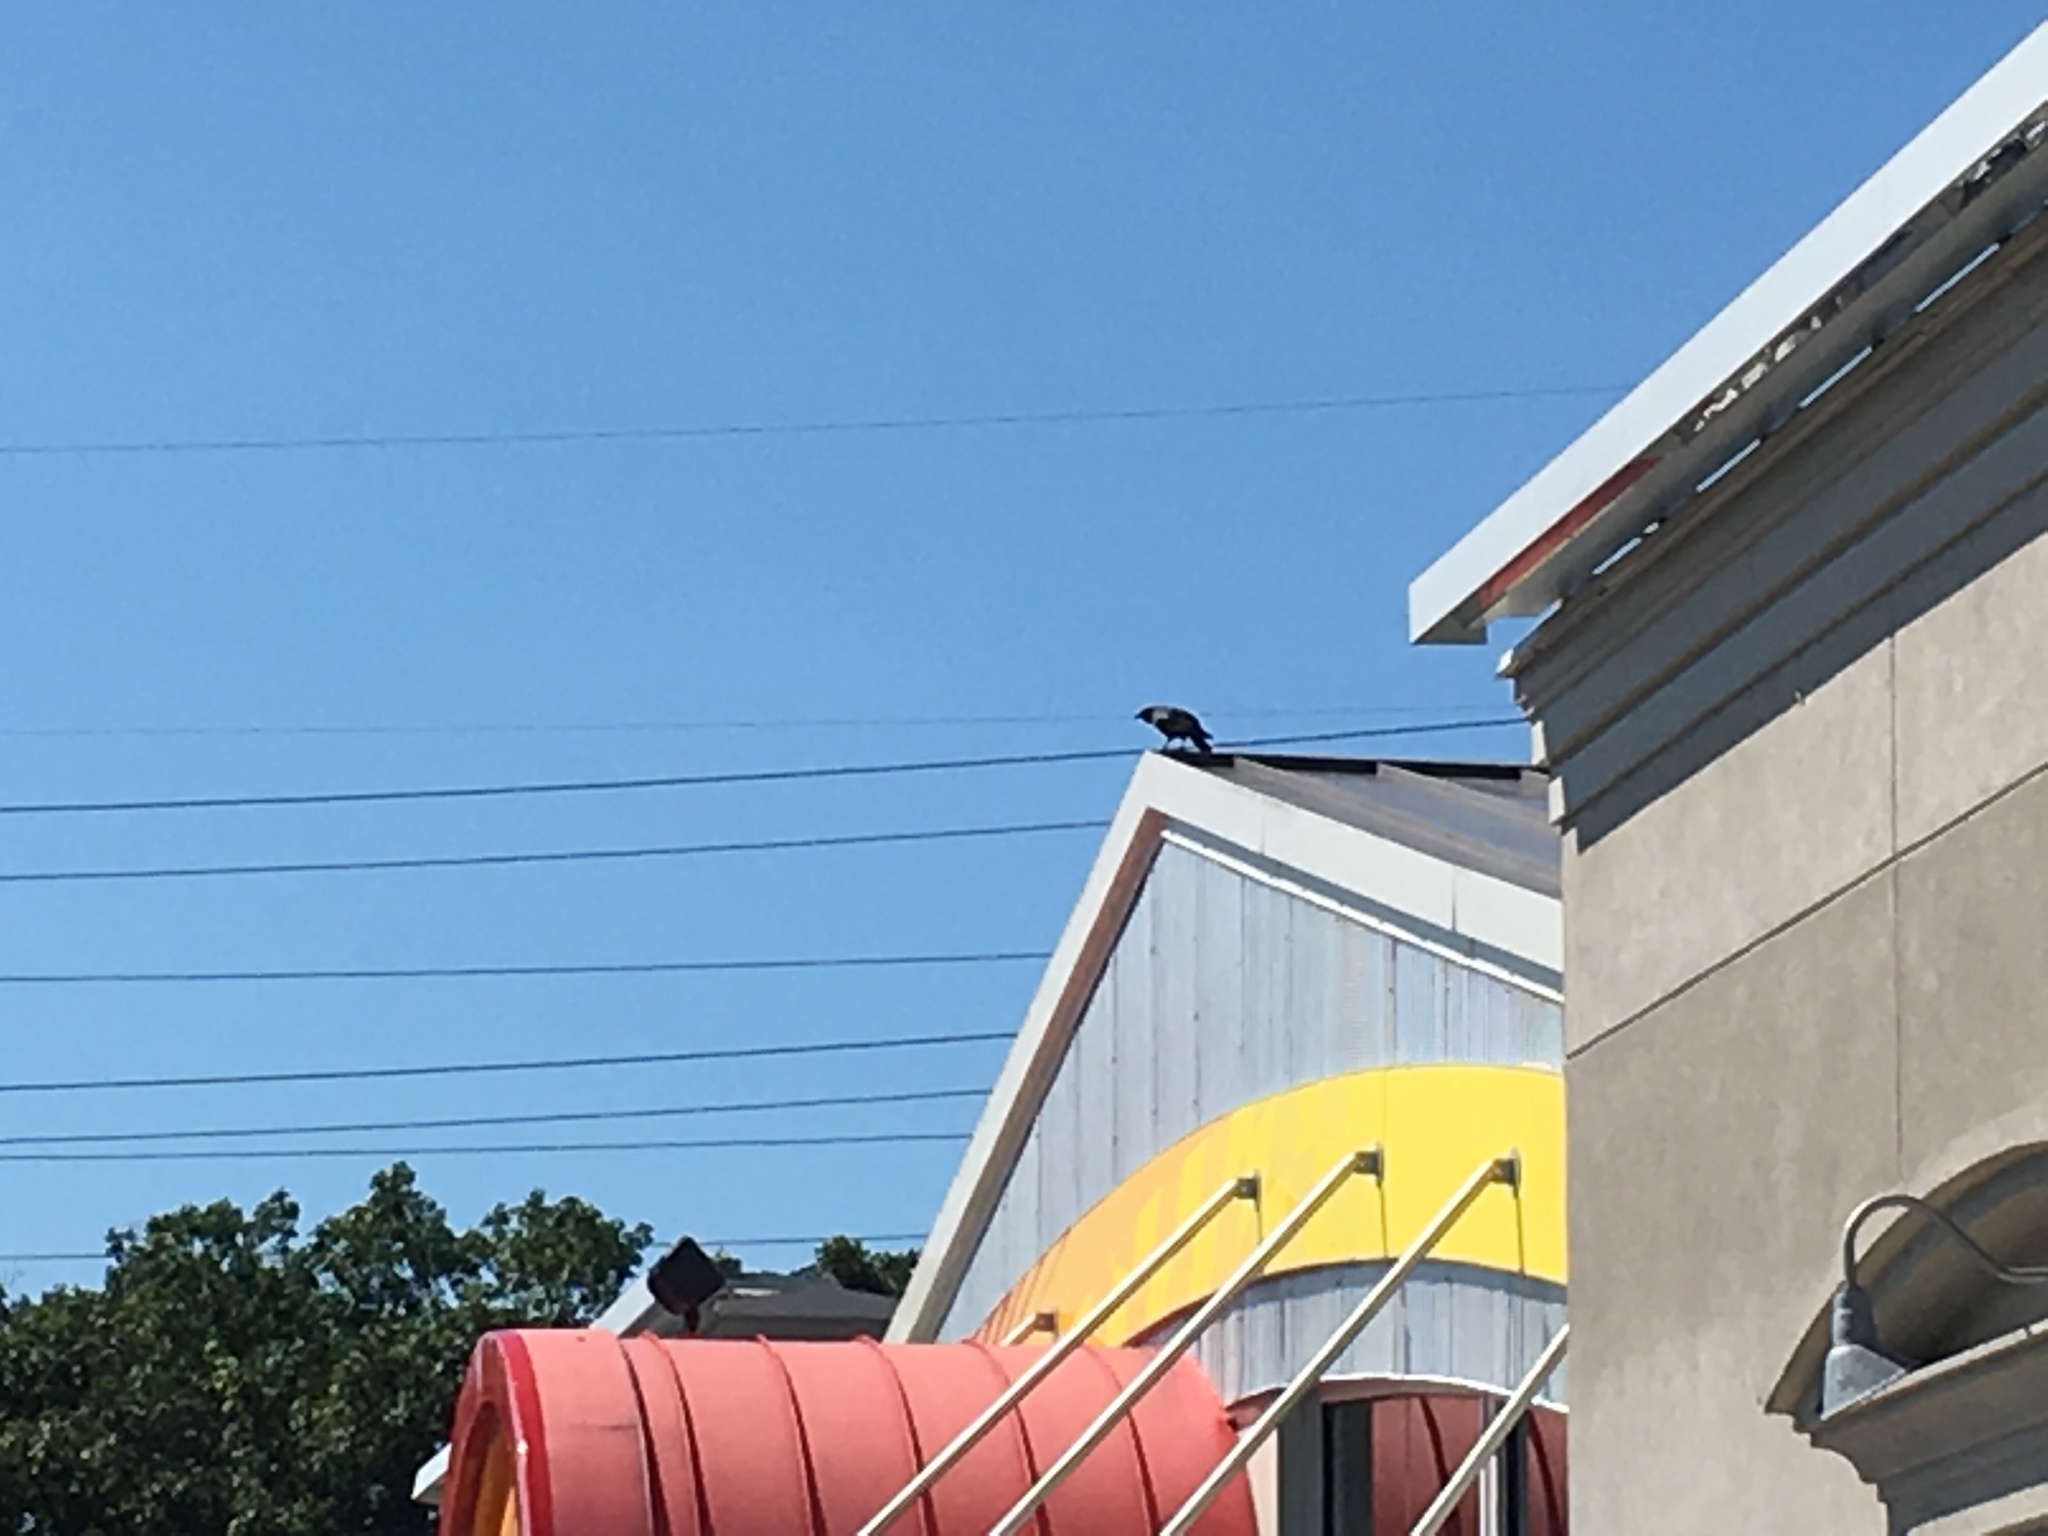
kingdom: Animalia
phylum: Chordata
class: Aves
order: Passeriformes
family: Corvidae
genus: Corvus
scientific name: Corvus
